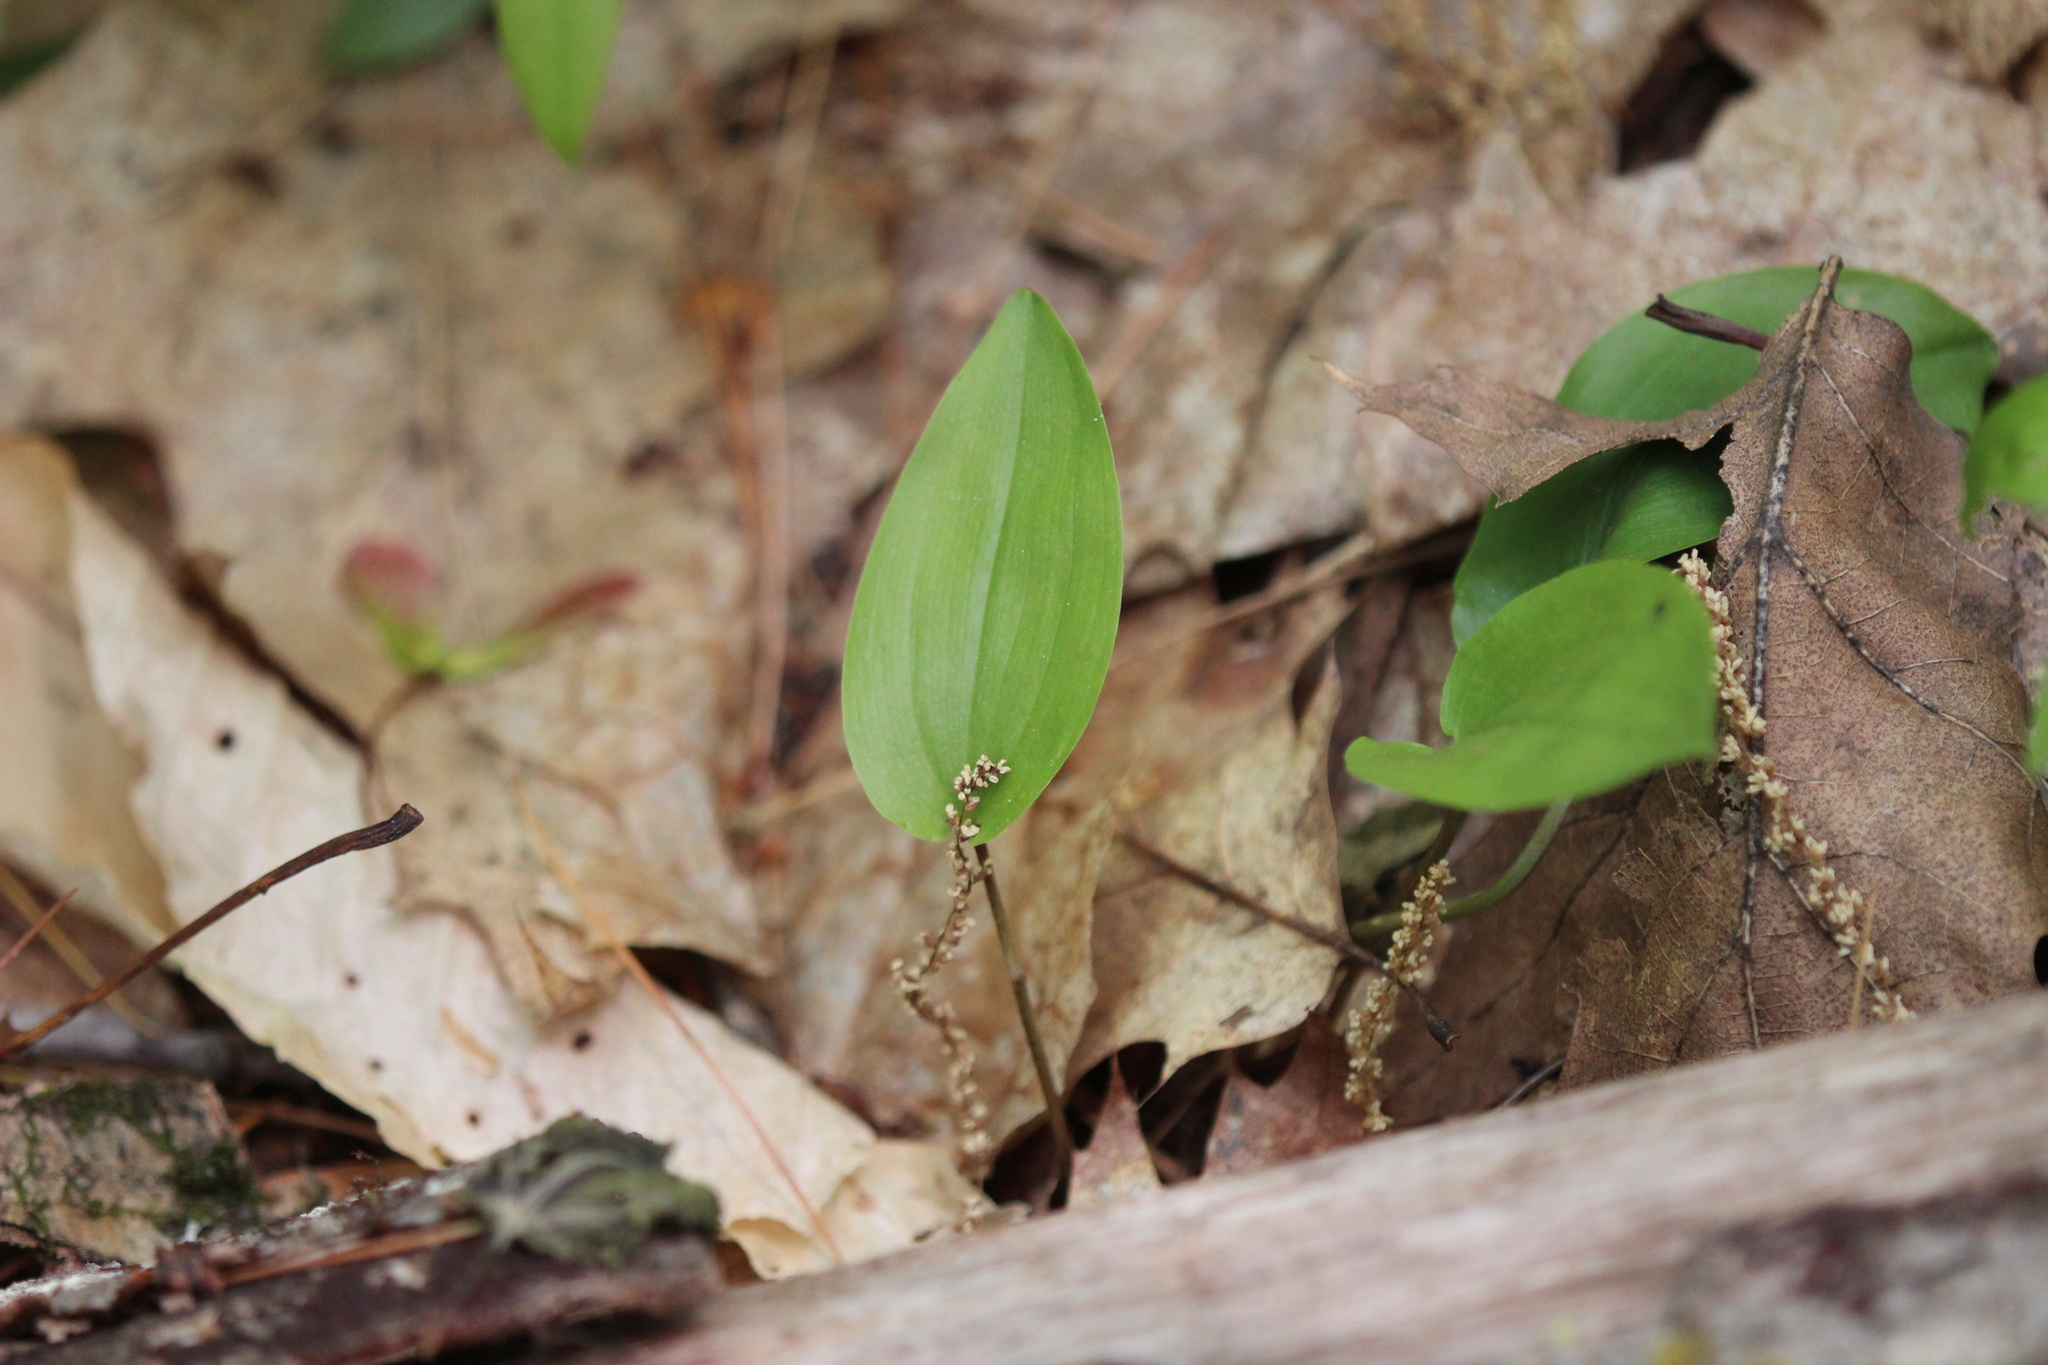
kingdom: Plantae
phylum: Tracheophyta
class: Liliopsida
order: Asparagales
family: Asparagaceae
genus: Maianthemum
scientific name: Maianthemum canadense
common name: False lily-of-the-valley
